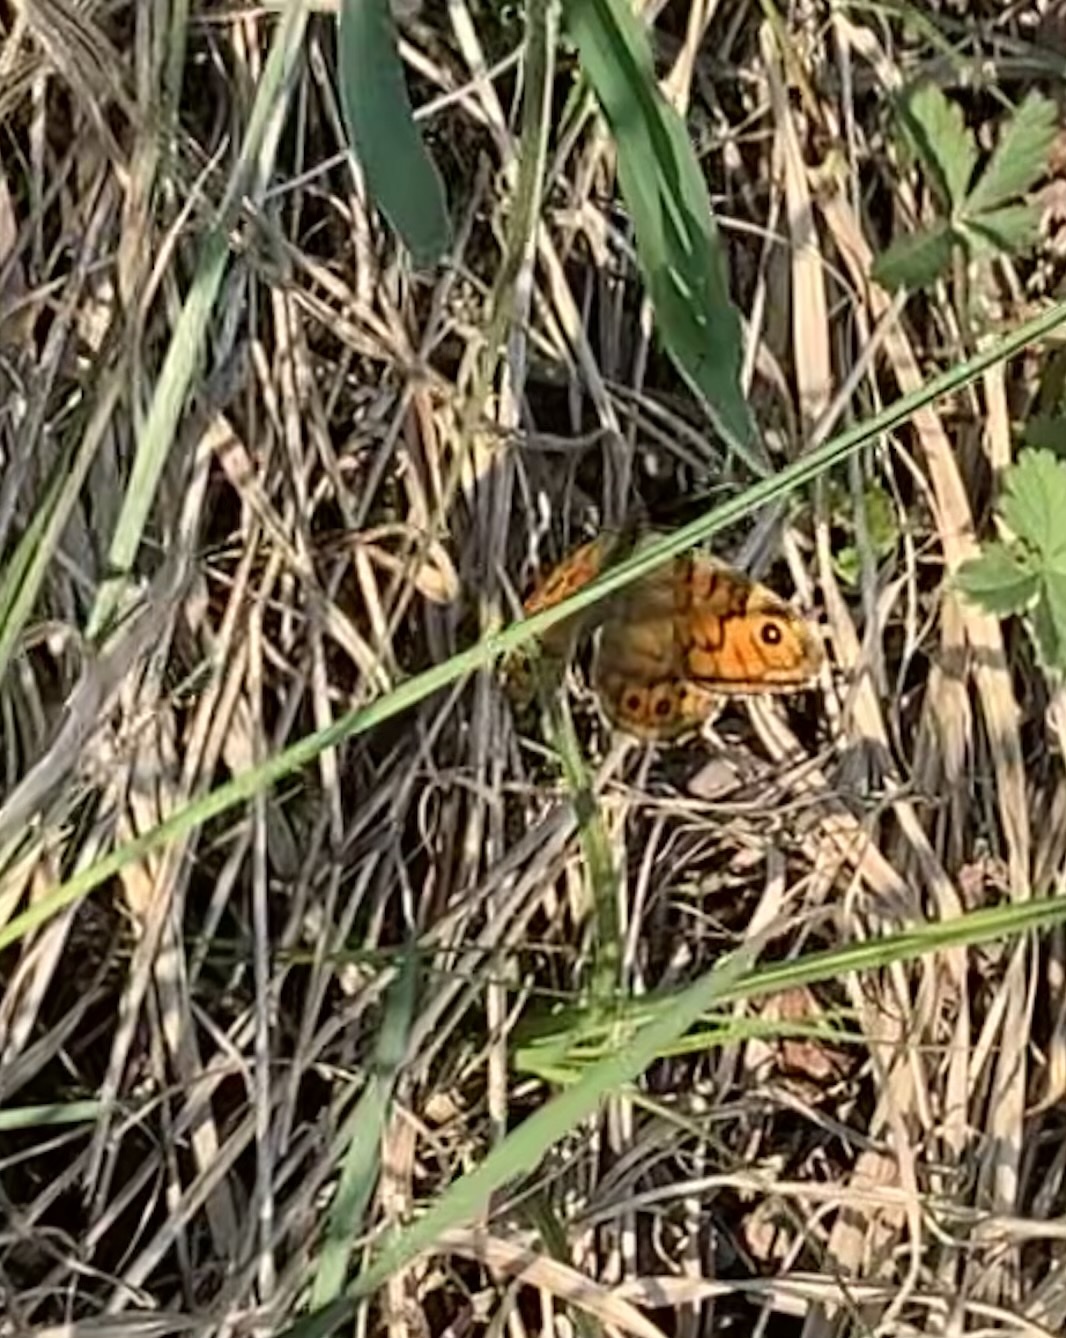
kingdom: Animalia
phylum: Arthropoda
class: Insecta
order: Lepidoptera
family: Nymphalidae
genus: Pararge
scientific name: Pararge Lasiommata megera
